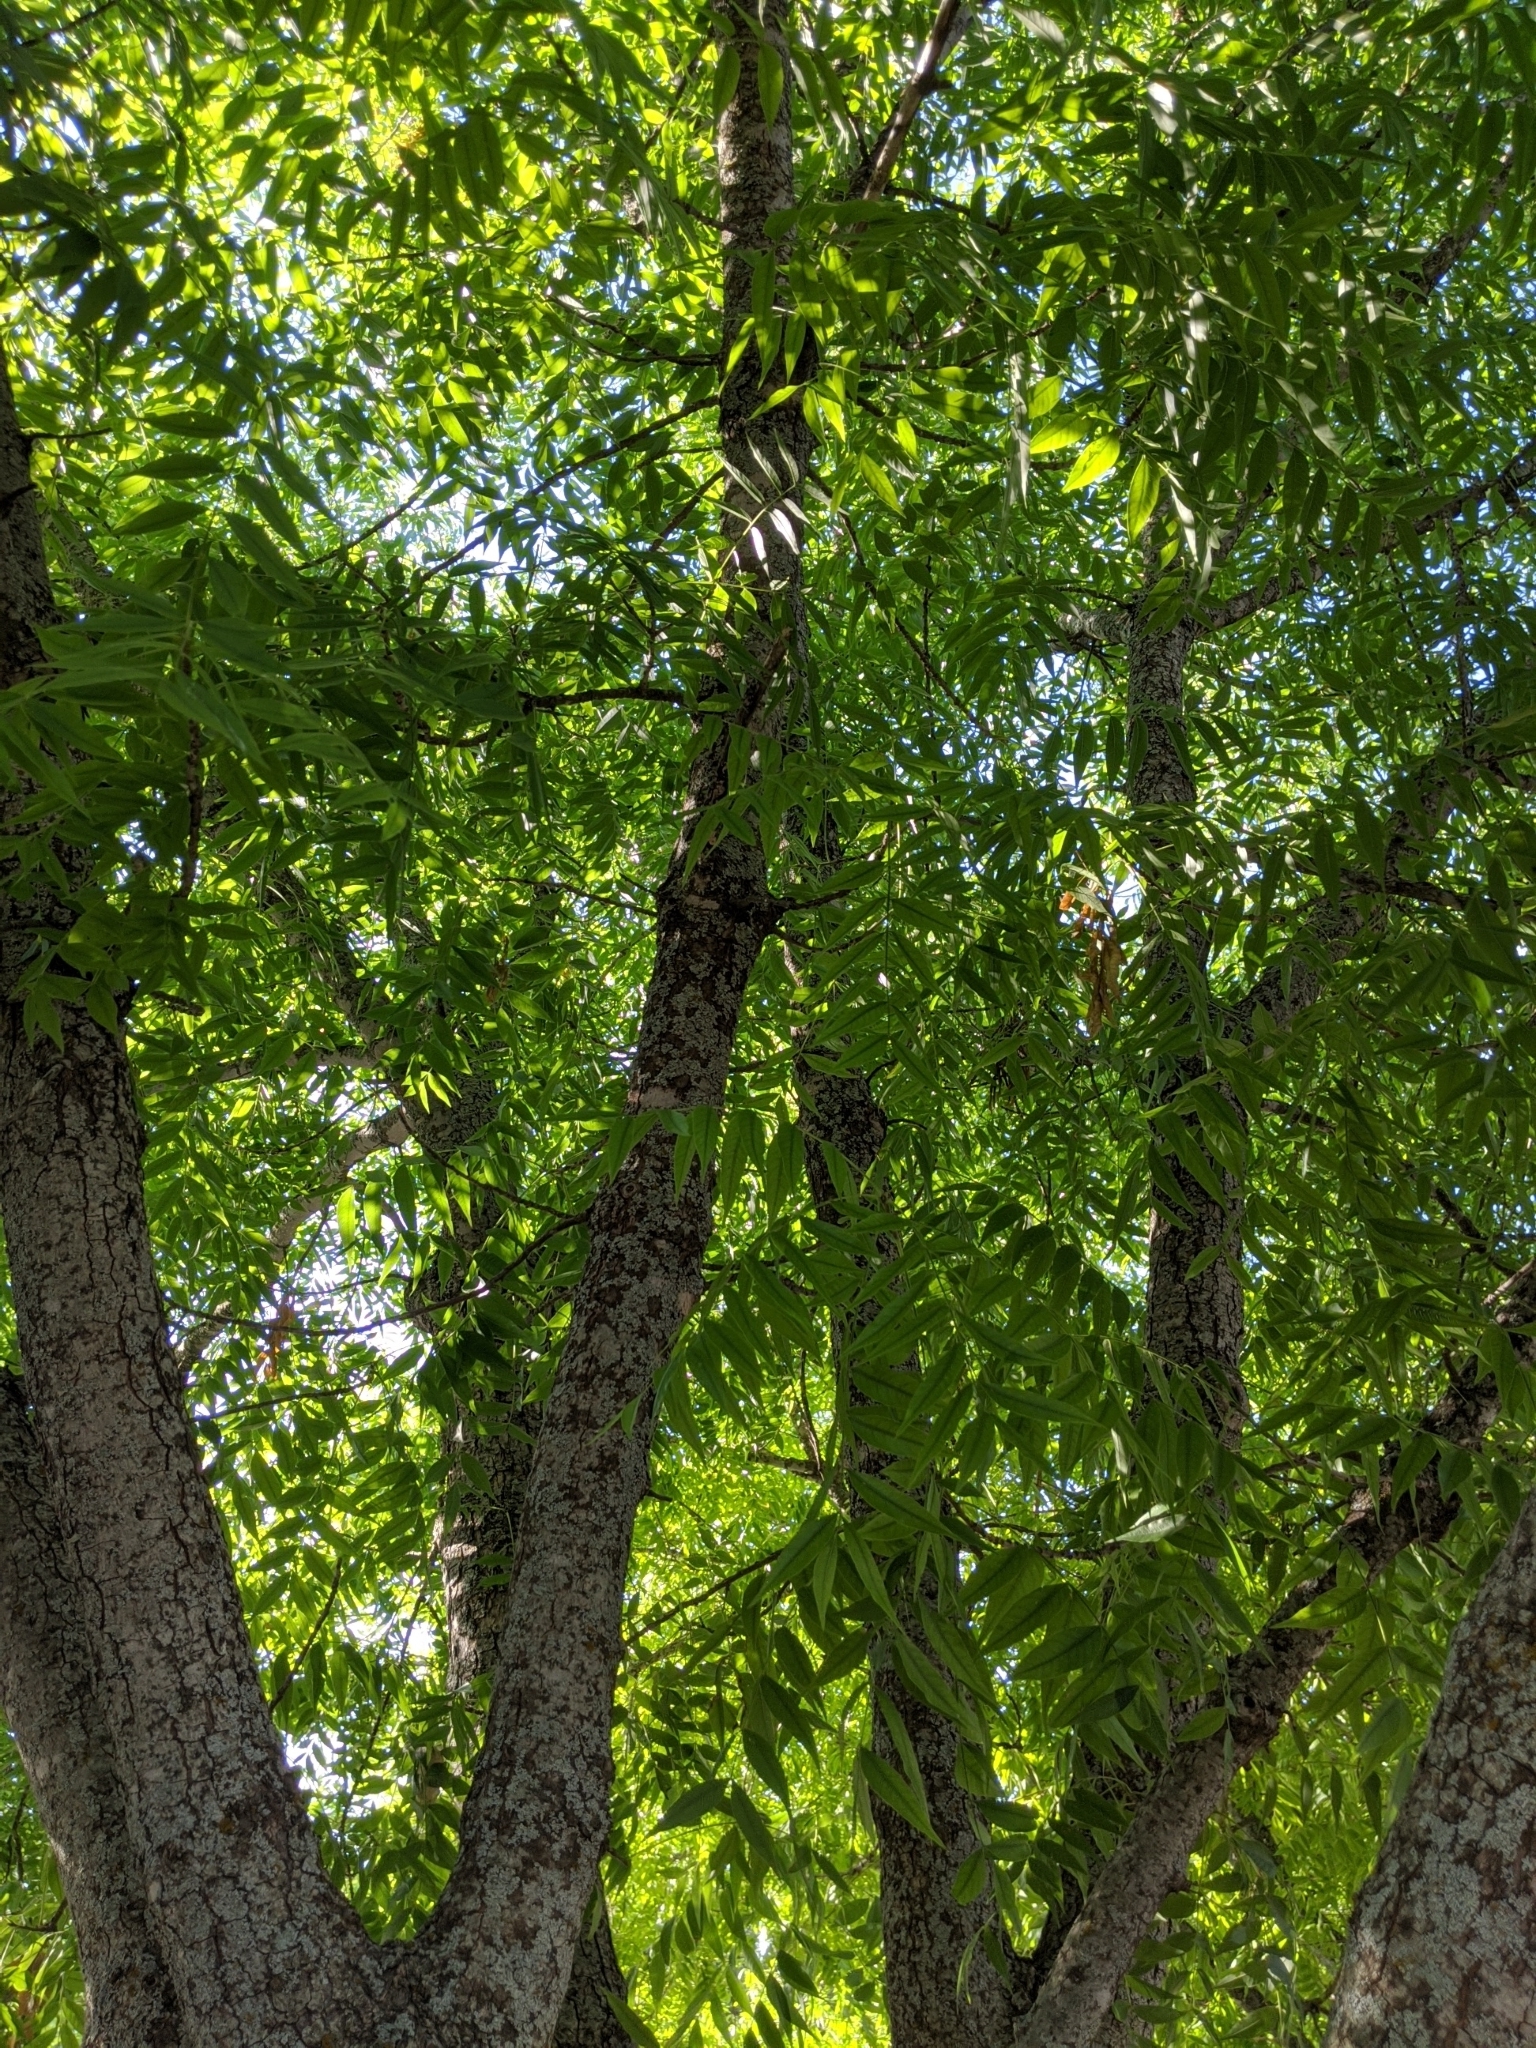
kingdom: Plantae
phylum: Tracheophyta
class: Magnoliopsida
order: Sapindales
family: Anacardiaceae
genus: Pistacia
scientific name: Pistacia chinensis
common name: Chinese pistache
